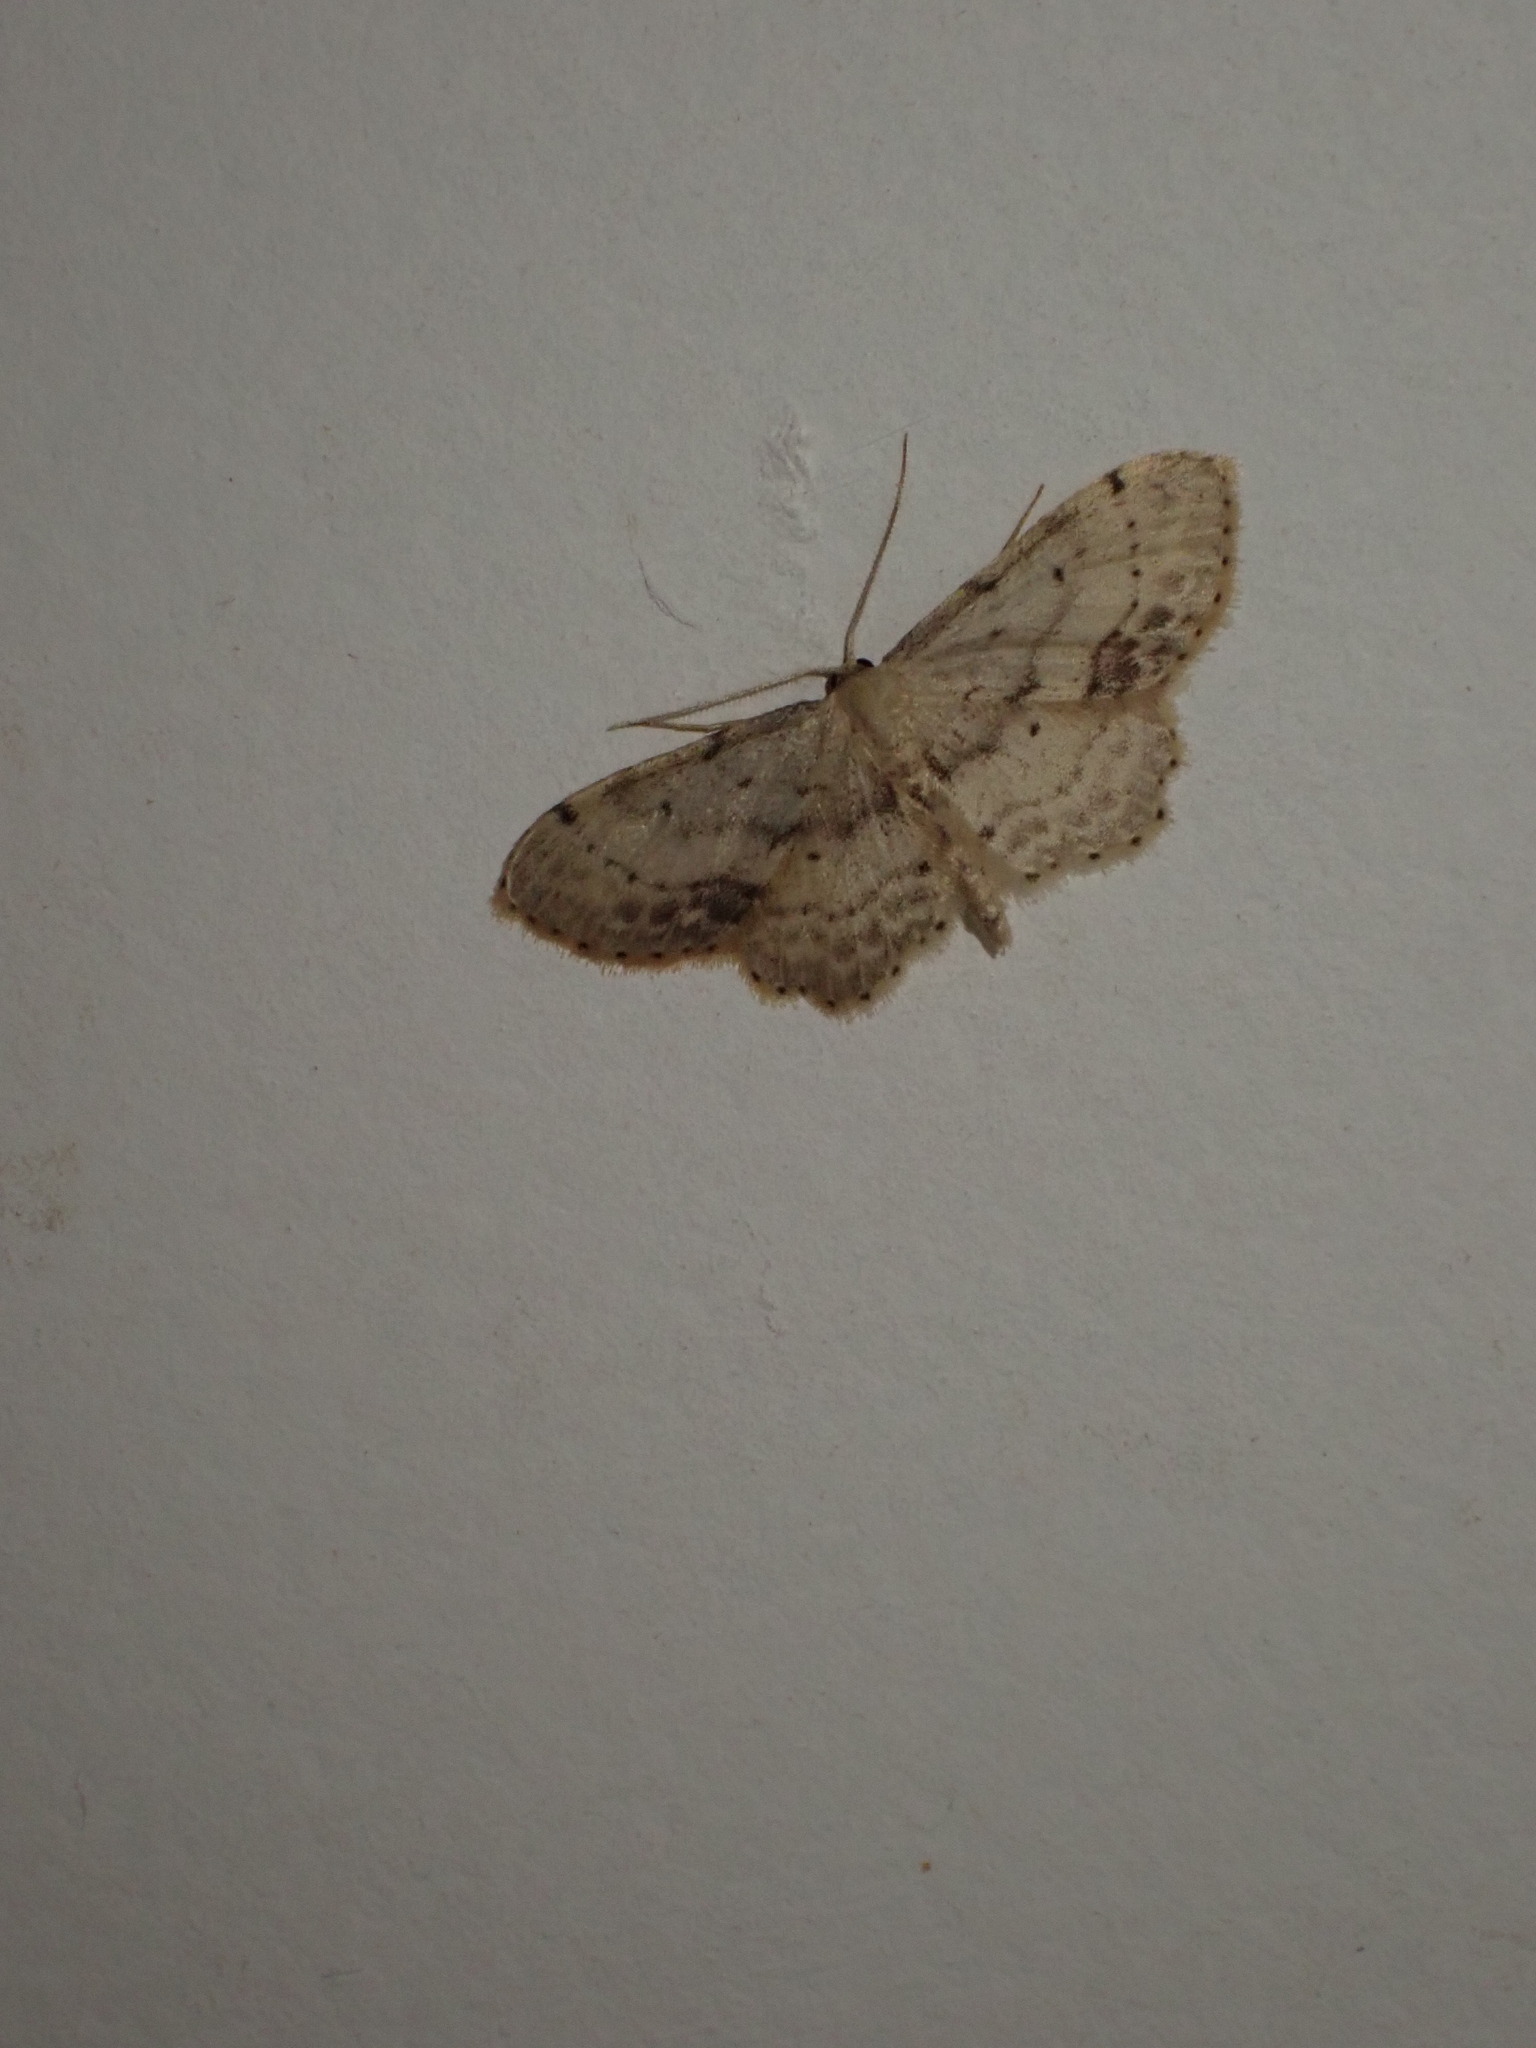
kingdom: Animalia
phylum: Arthropoda
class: Insecta
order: Lepidoptera
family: Geometridae
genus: Idaea
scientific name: Idaea dimidiata
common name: Single-dotted wave
